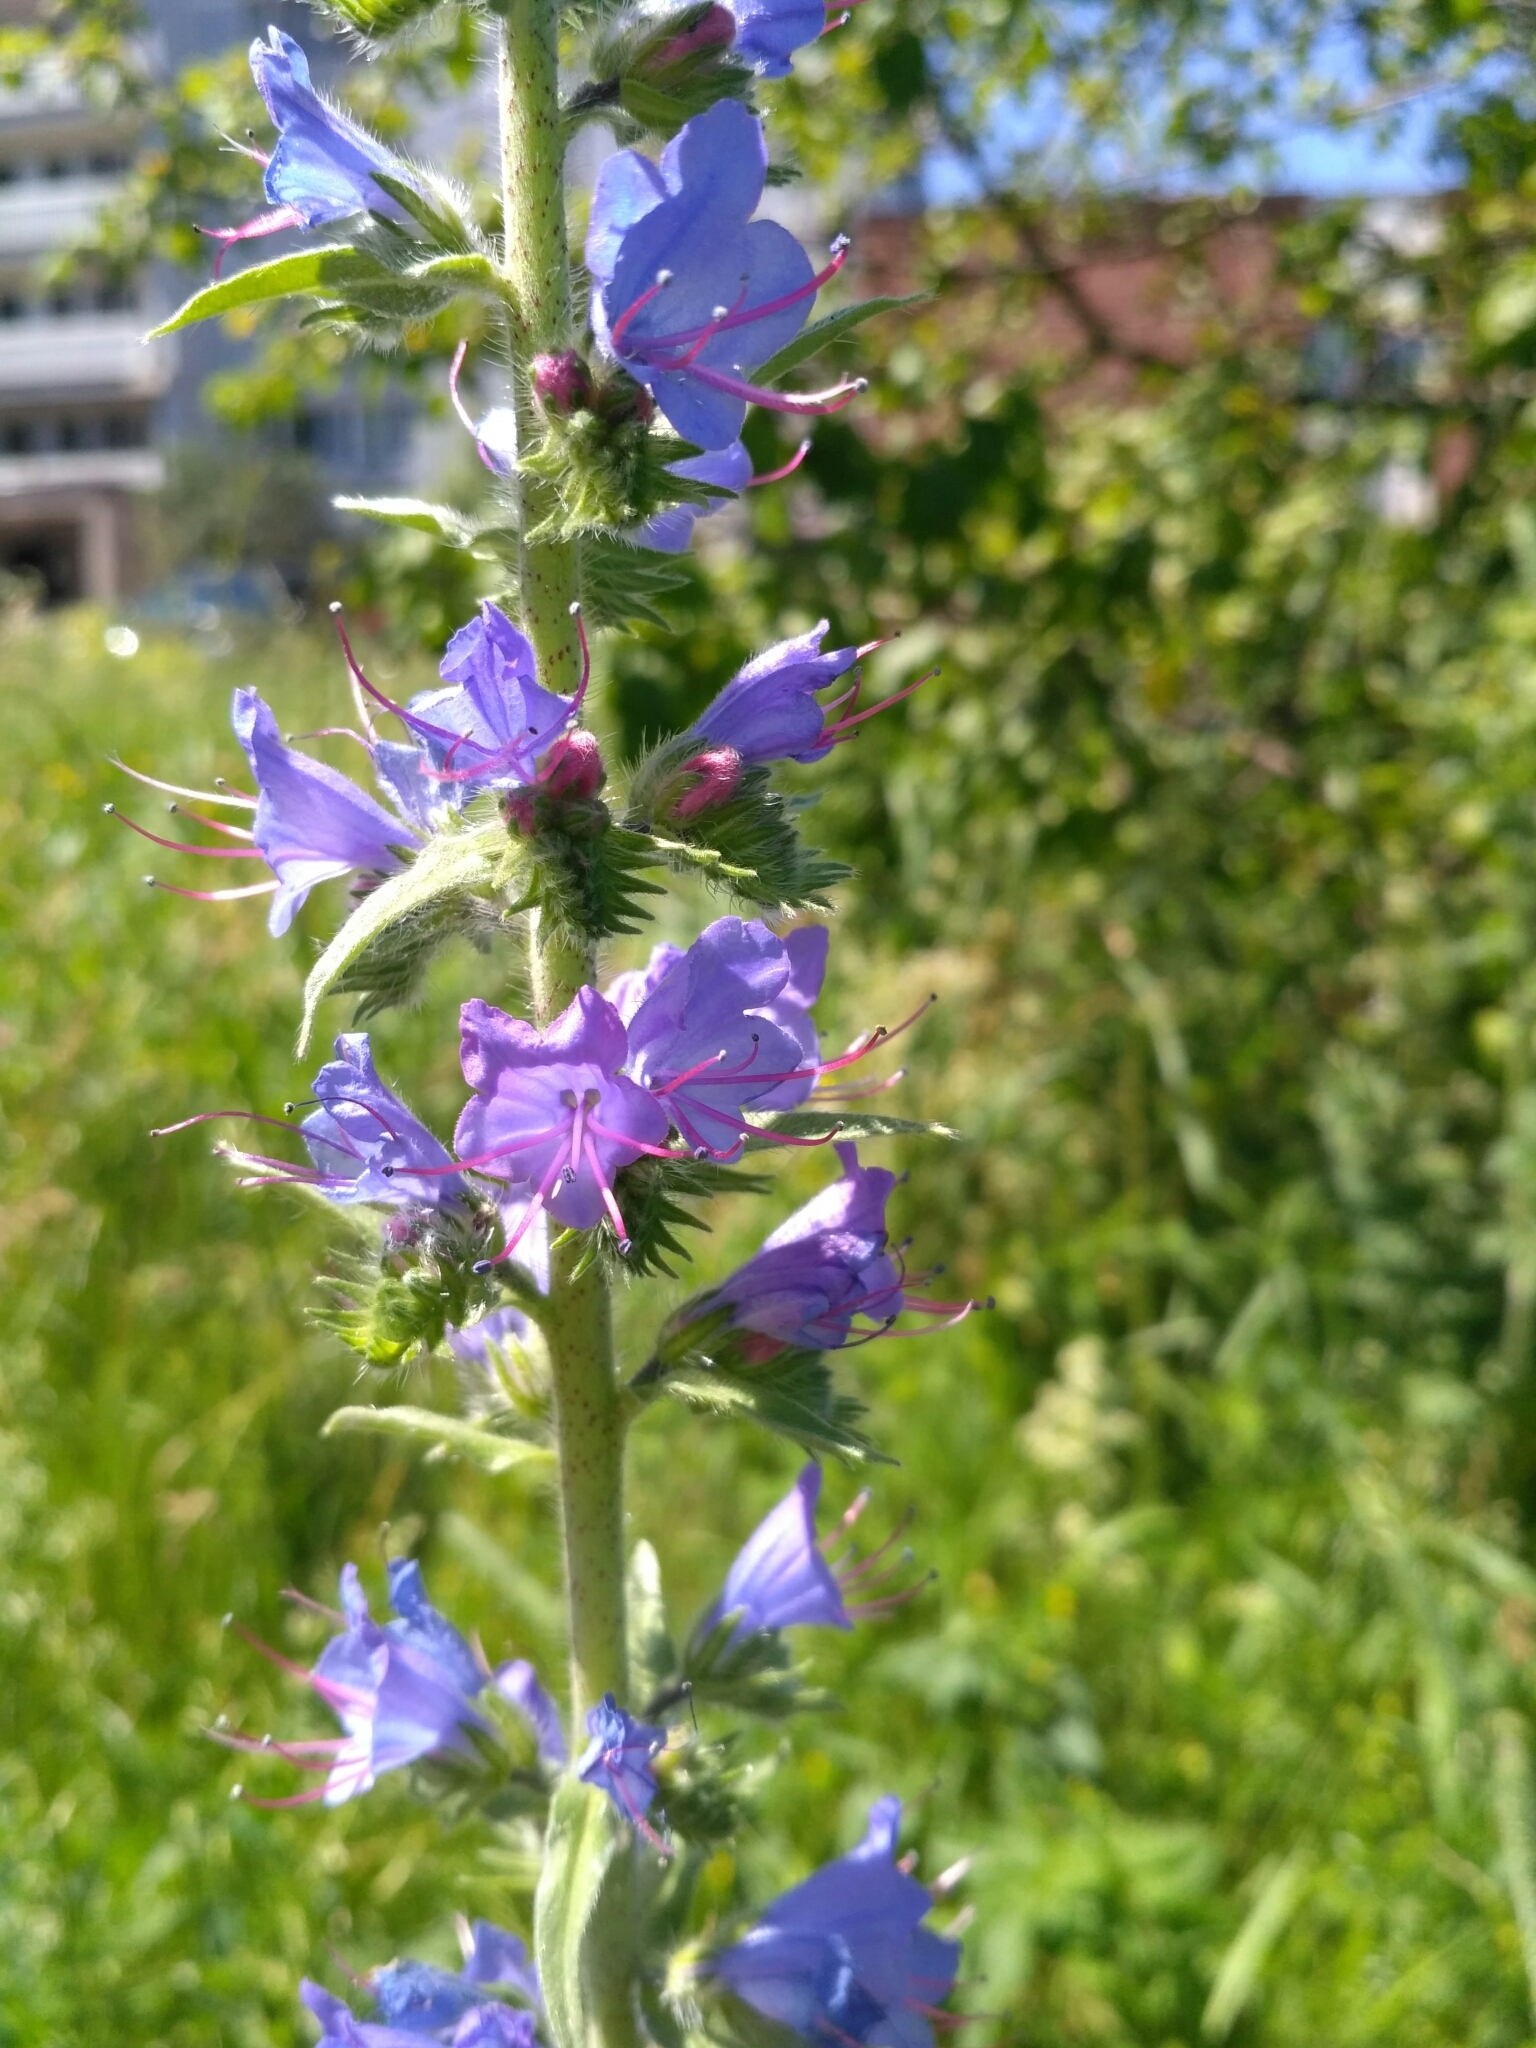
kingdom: Plantae
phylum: Tracheophyta
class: Magnoliopsida
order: Boraginales
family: Boraginaceae
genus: Echium
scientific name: Echium vulgare
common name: Common viper's bugloss
